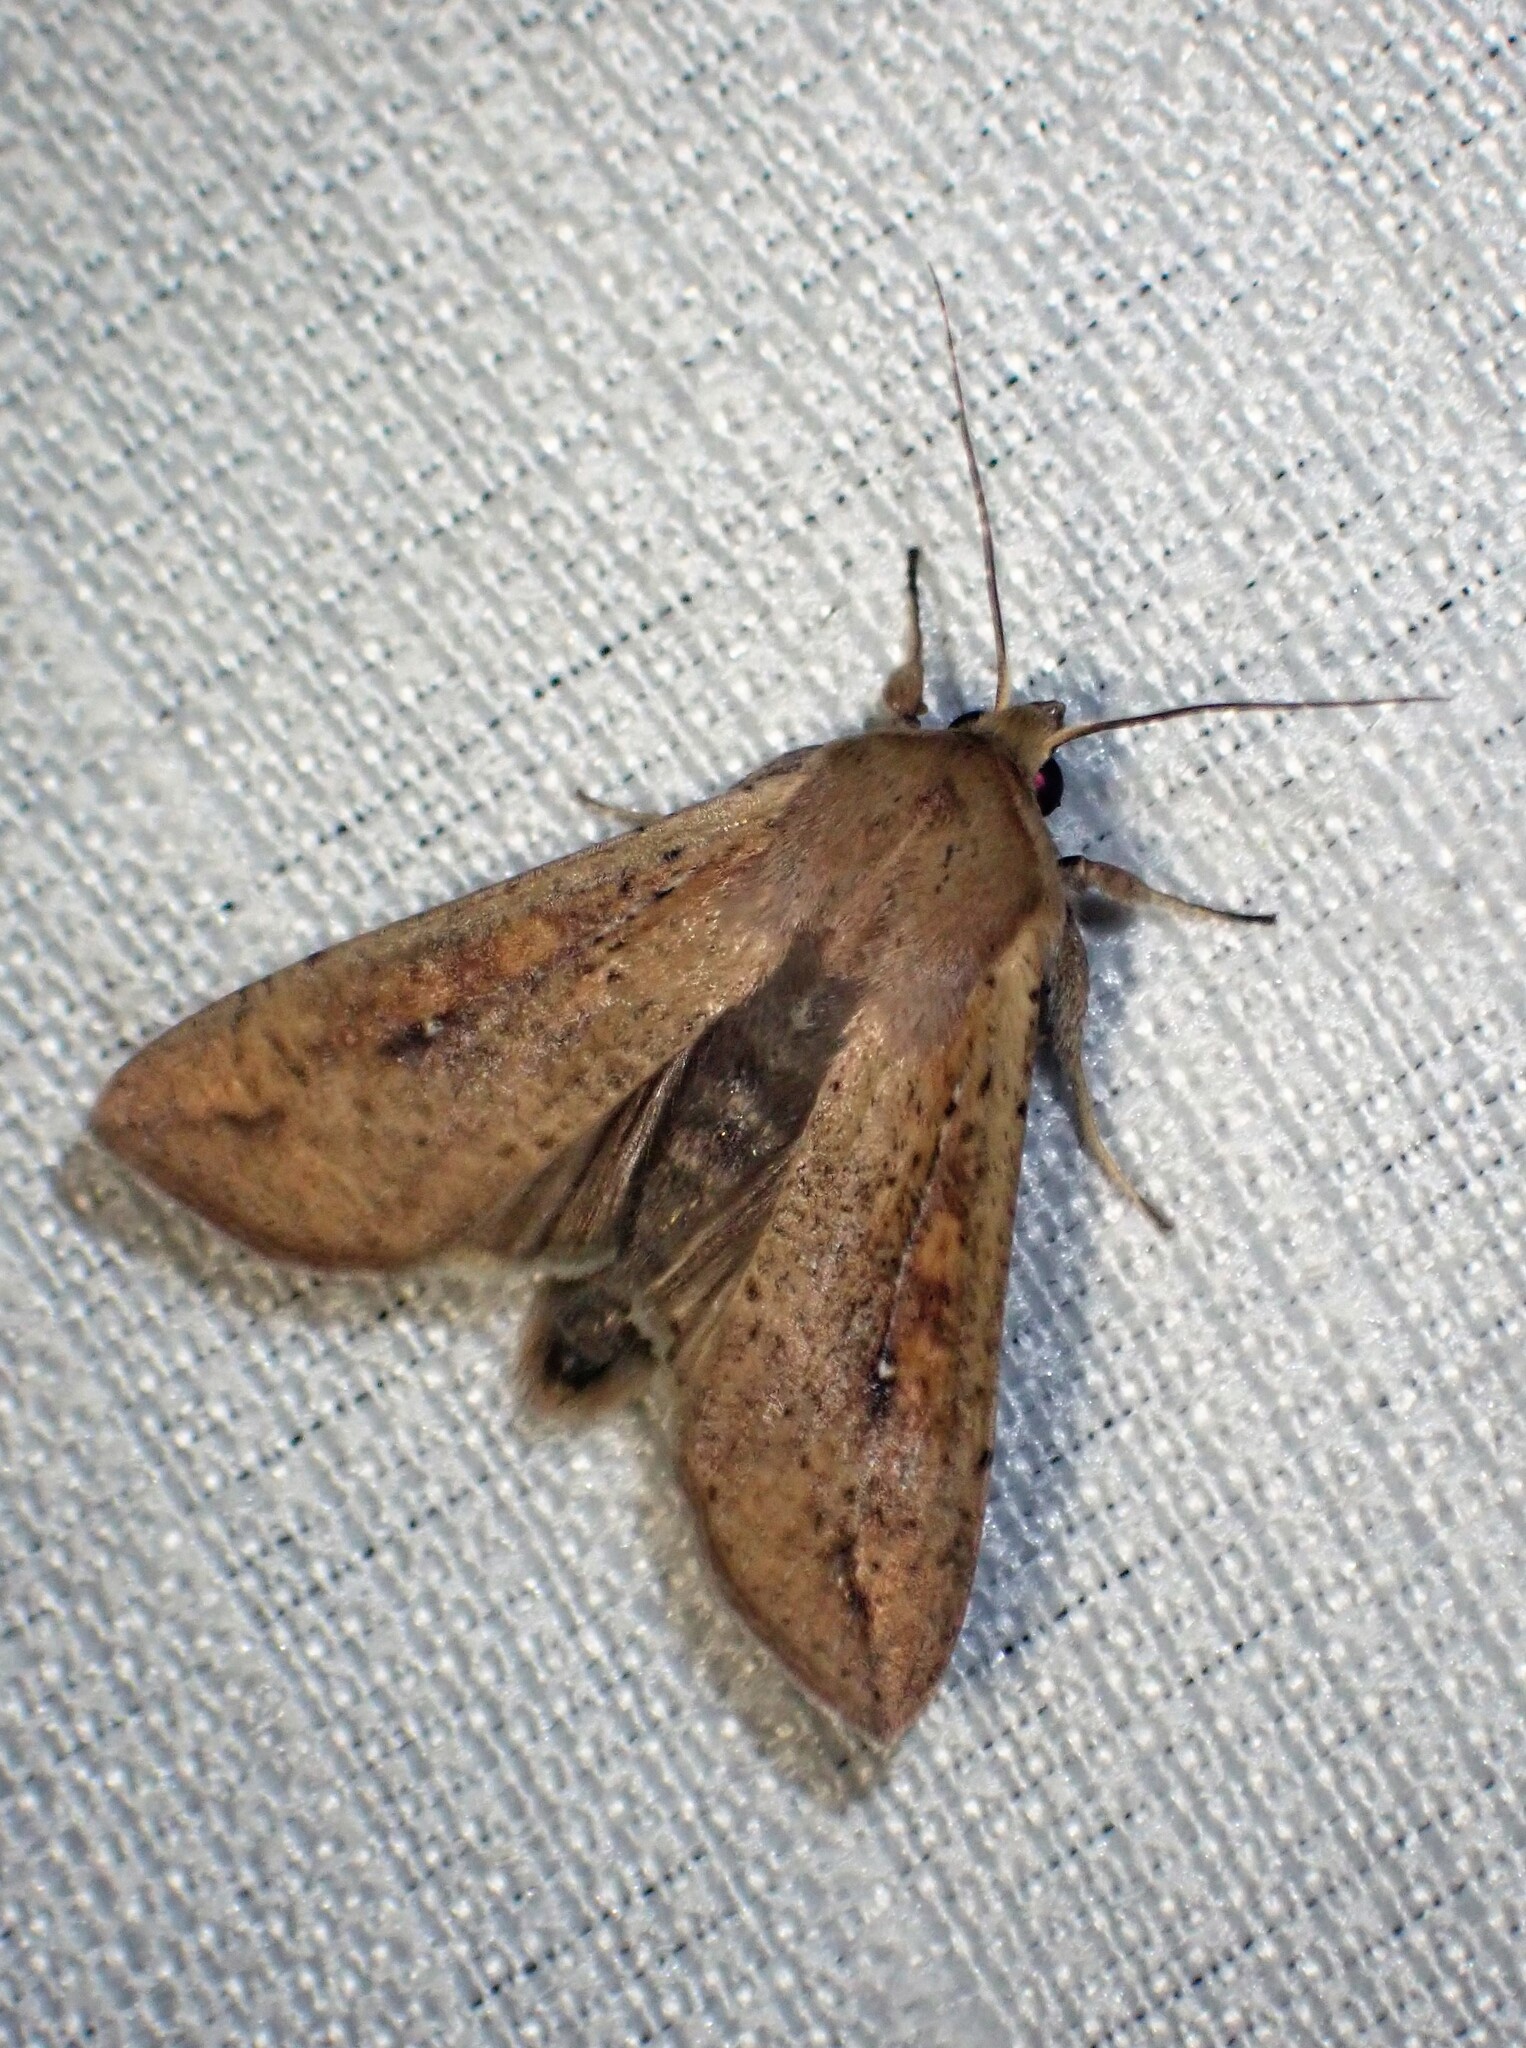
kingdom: Animalia
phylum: Arthropoda
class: Insecta
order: Lepidoptera
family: Noctuidae
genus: Mythimna
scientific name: Mythimna unipuncta
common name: White-speck
